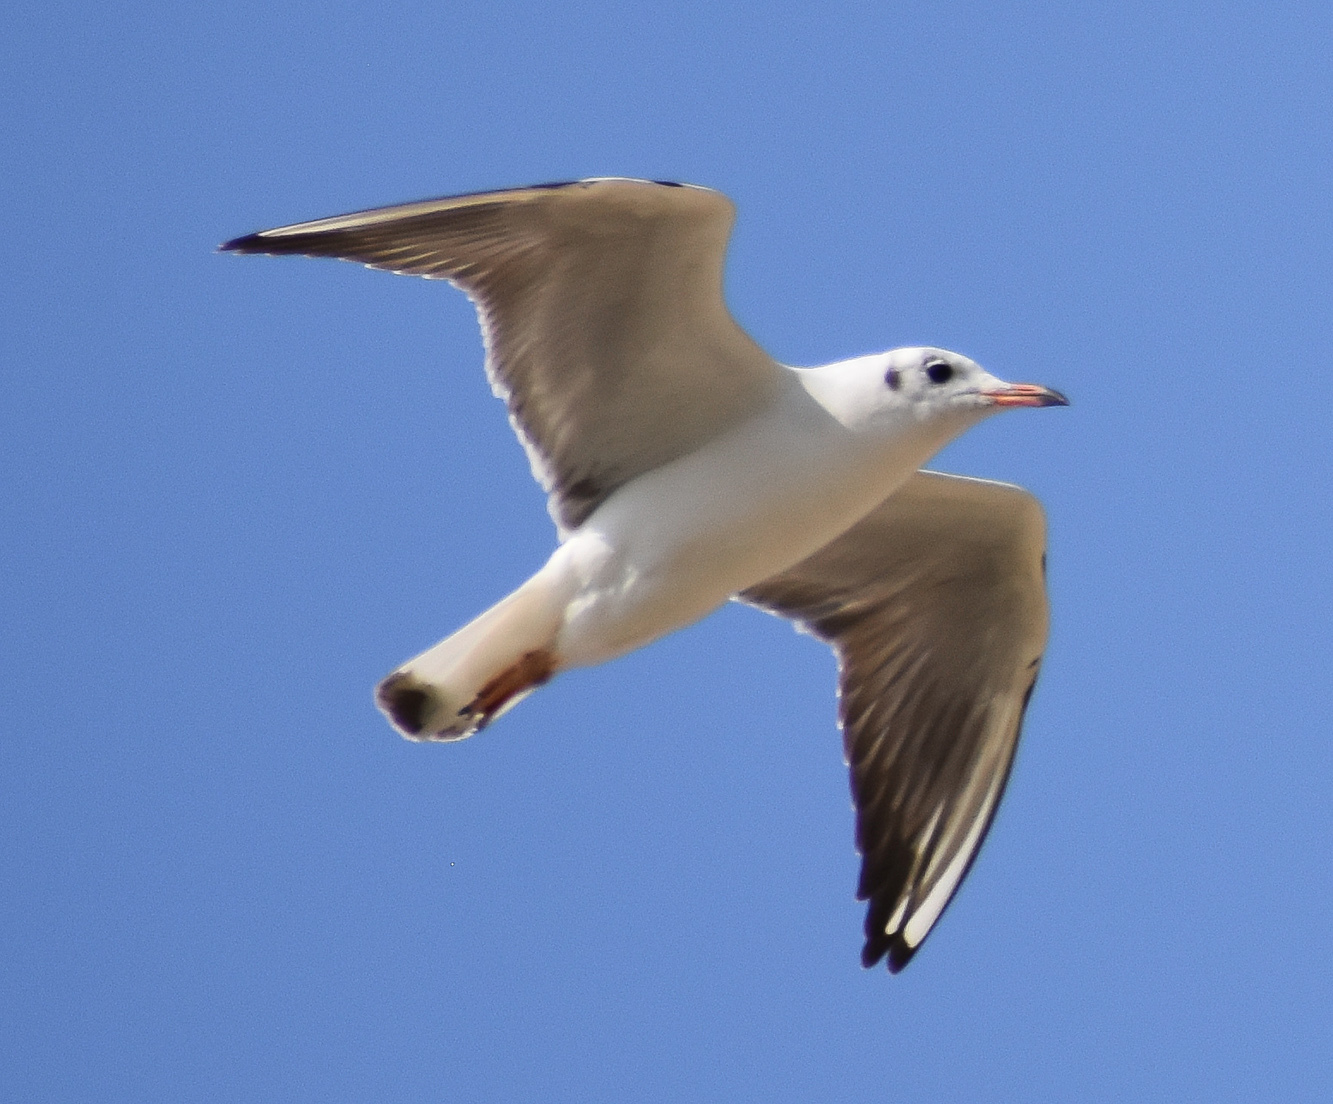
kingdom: Animalia
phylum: Chordata
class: Aves
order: Charadriiformes
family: Laridae
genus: Chroicocephalus
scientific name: Chroicocephalus ridibundus
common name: Black-headed gull
